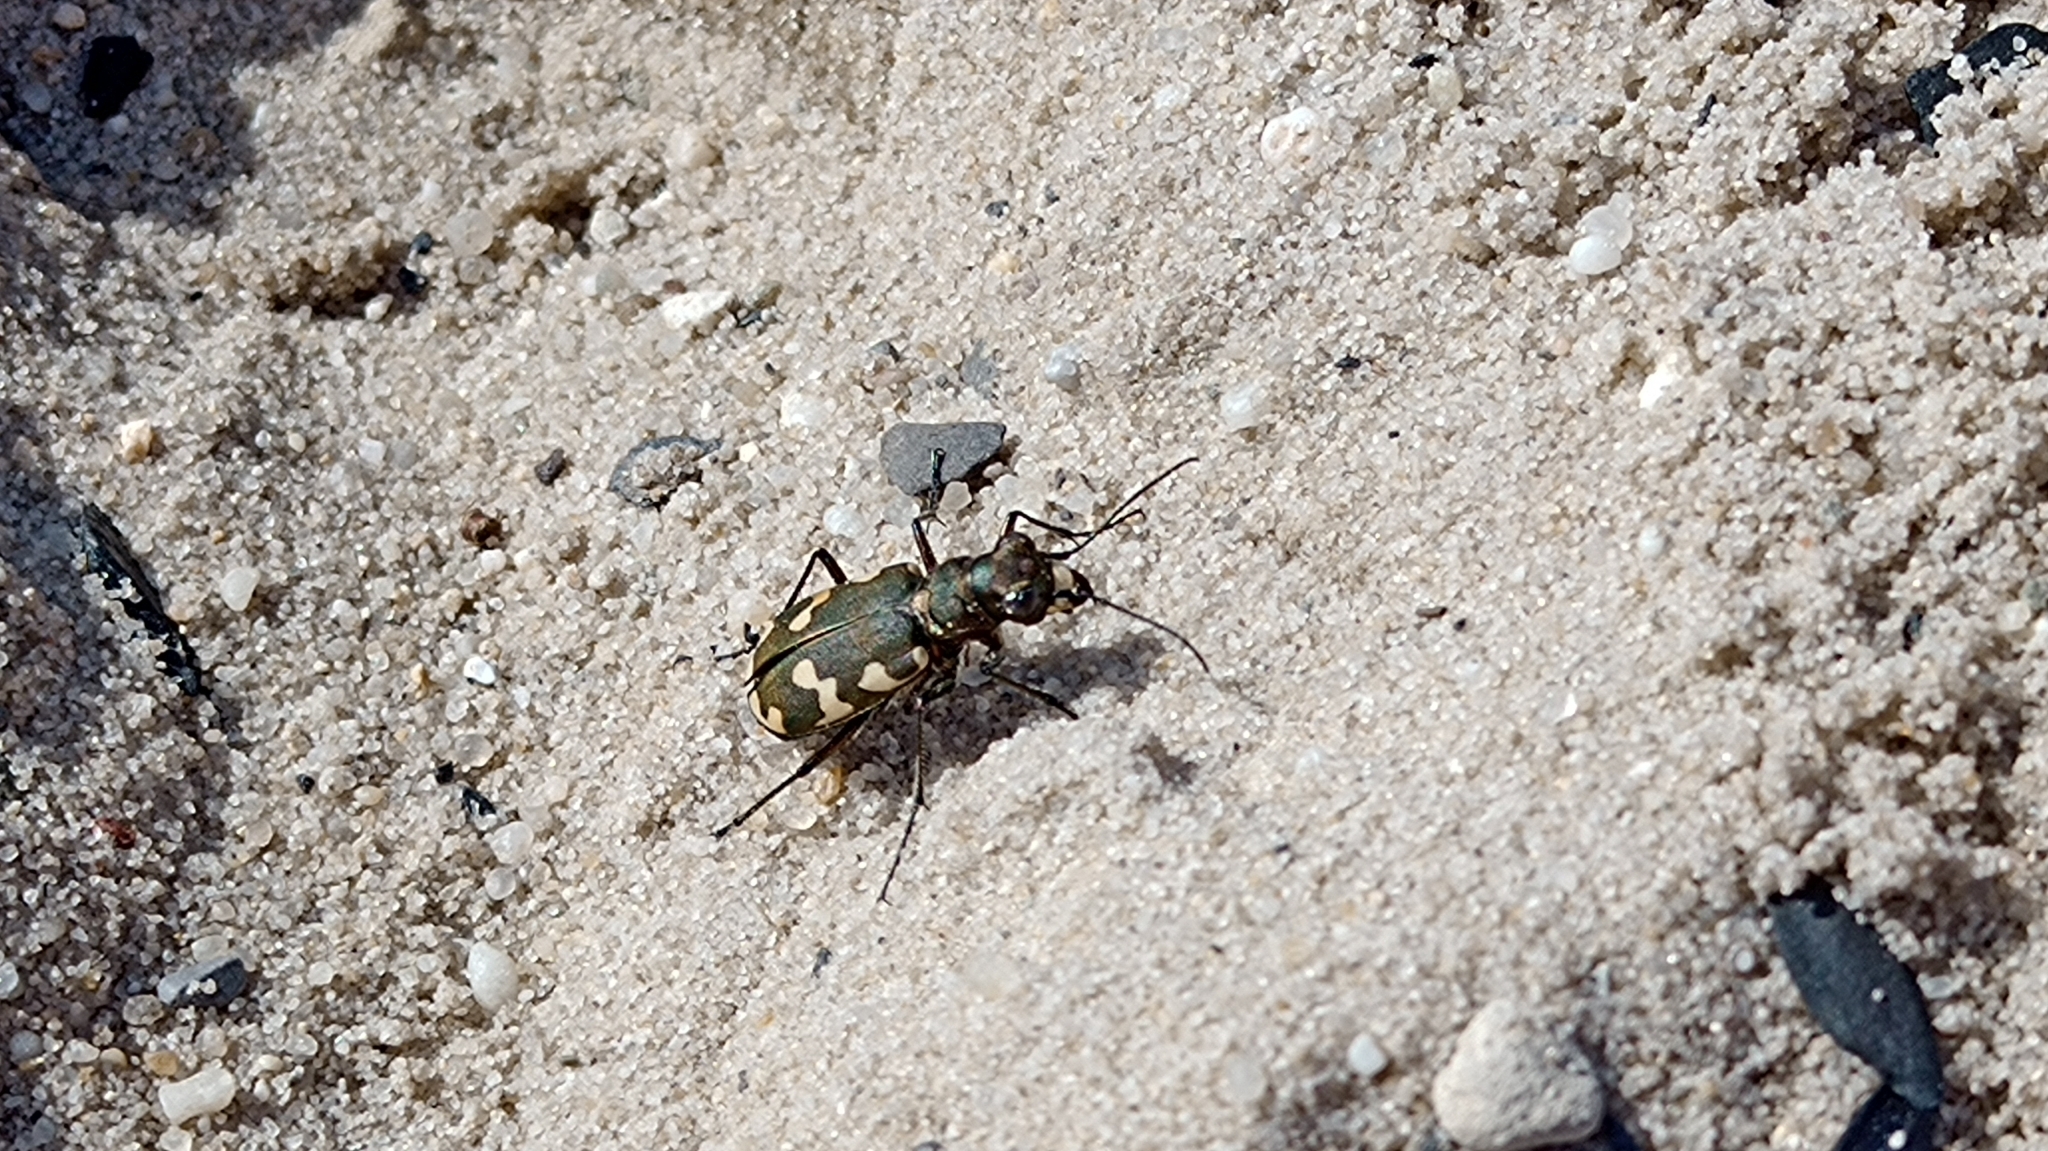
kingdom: Animalia
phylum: Arthropoda
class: Insecta
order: Coleoptera
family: Carabidae
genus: Cicindela
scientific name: Cicindela hybrida
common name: Northern dune tiger beetle
